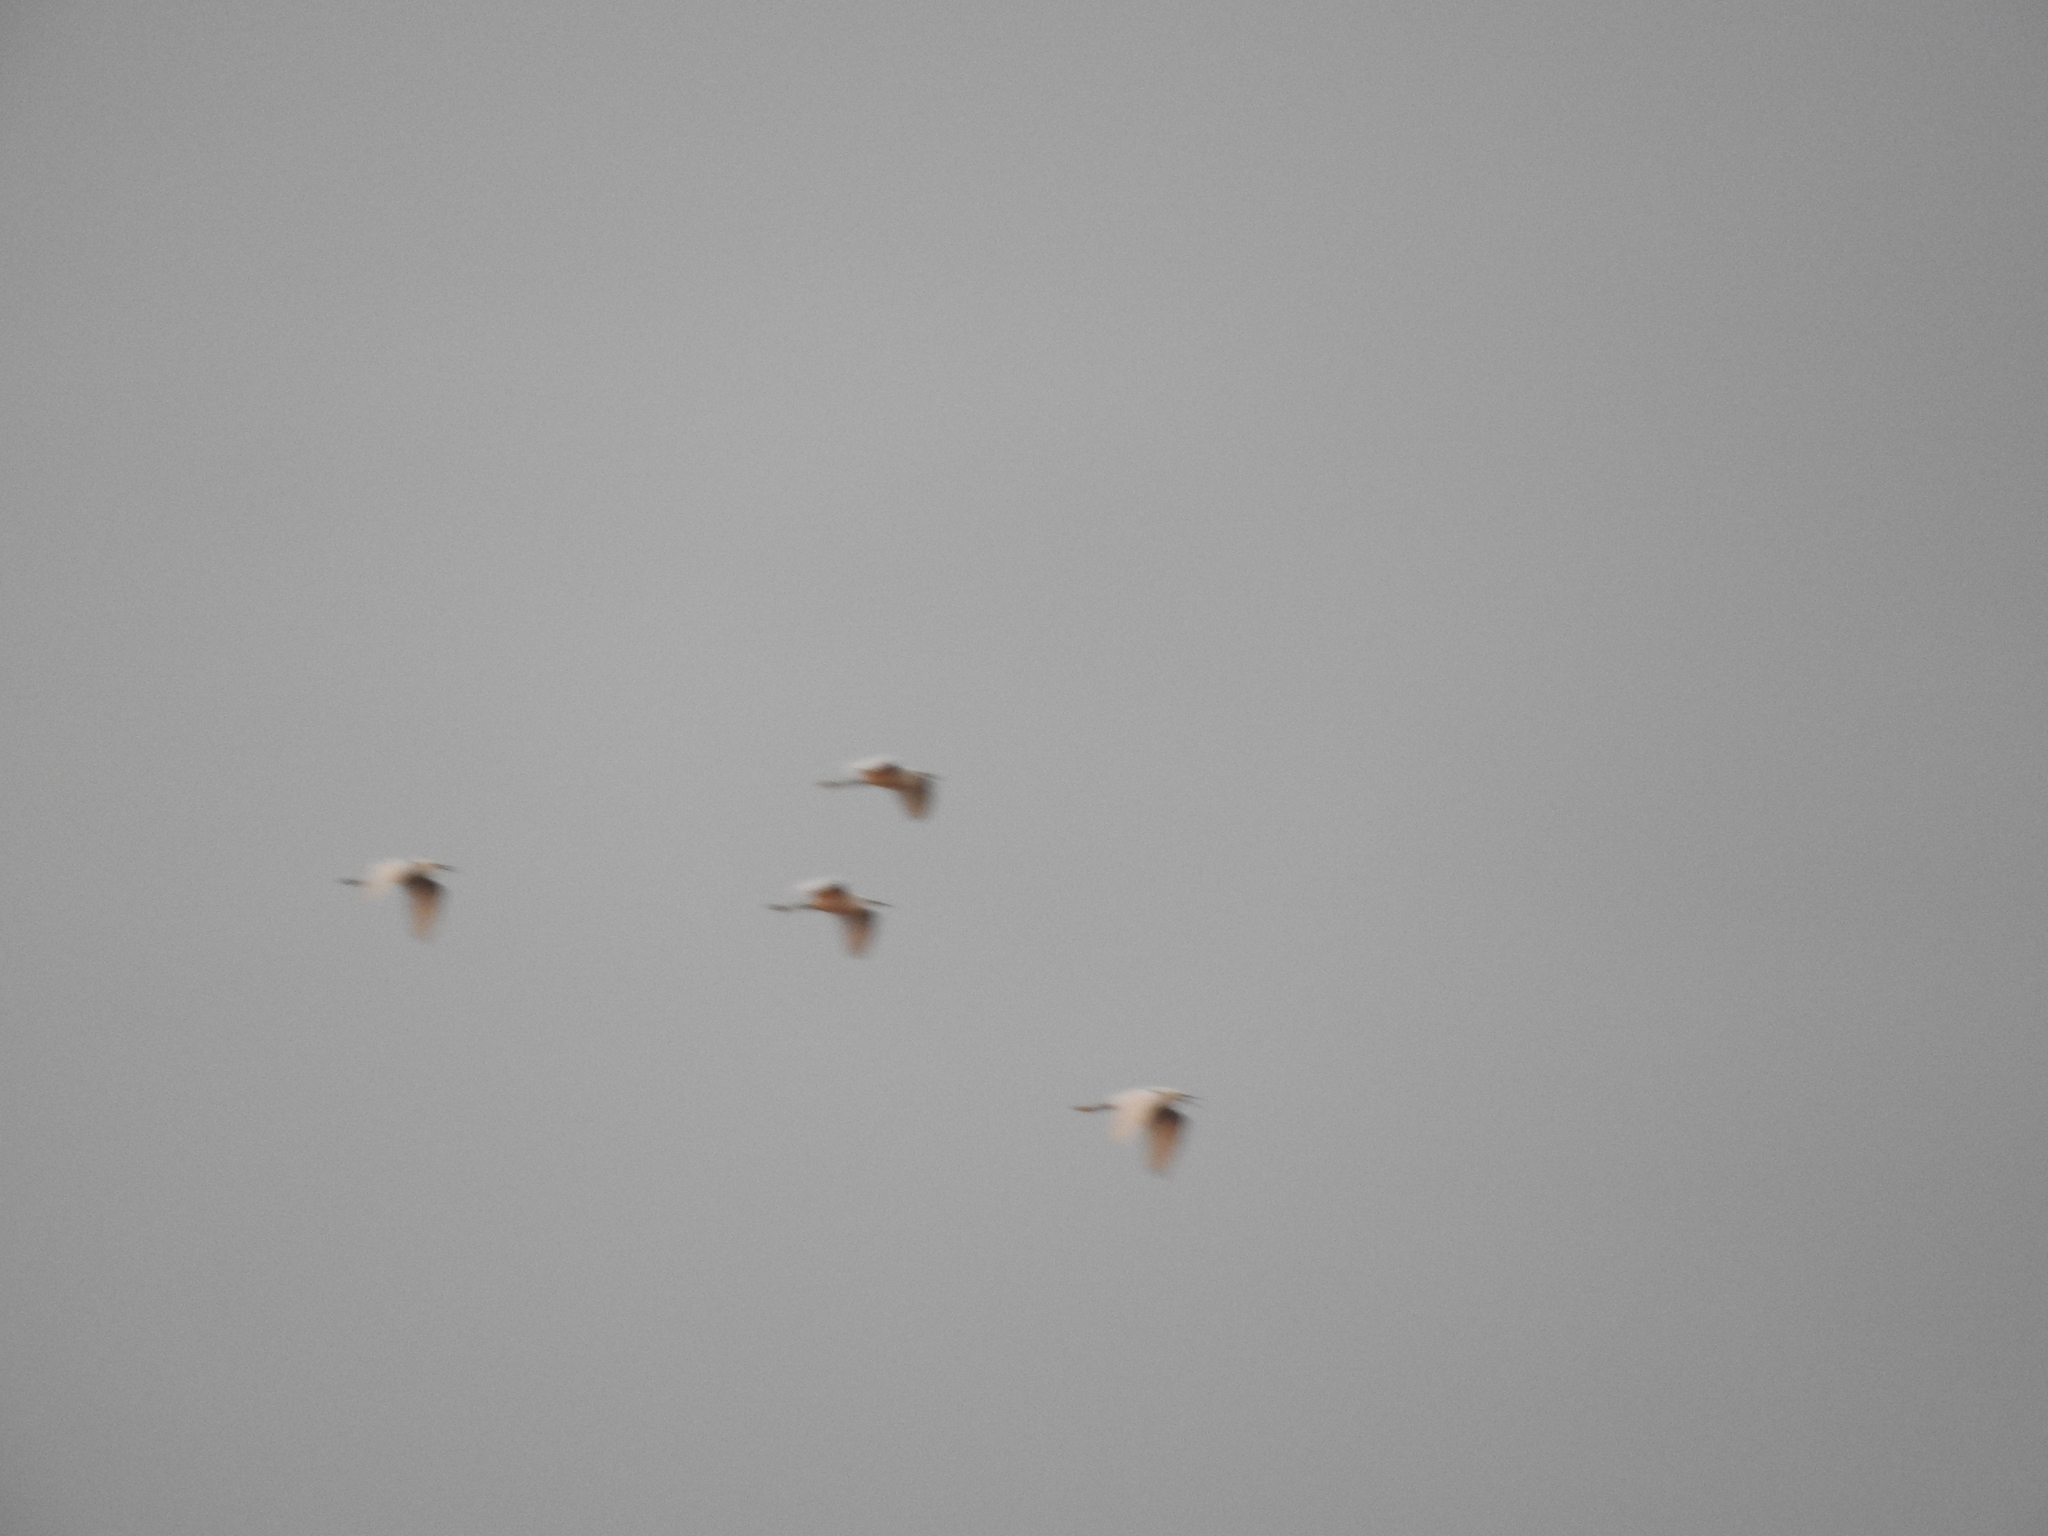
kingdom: Animalia
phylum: Chordata
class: Aves
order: Pelecaniformes
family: Ardeidae
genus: Bubulcus
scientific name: Bubulcus ibis
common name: Cattle egret
